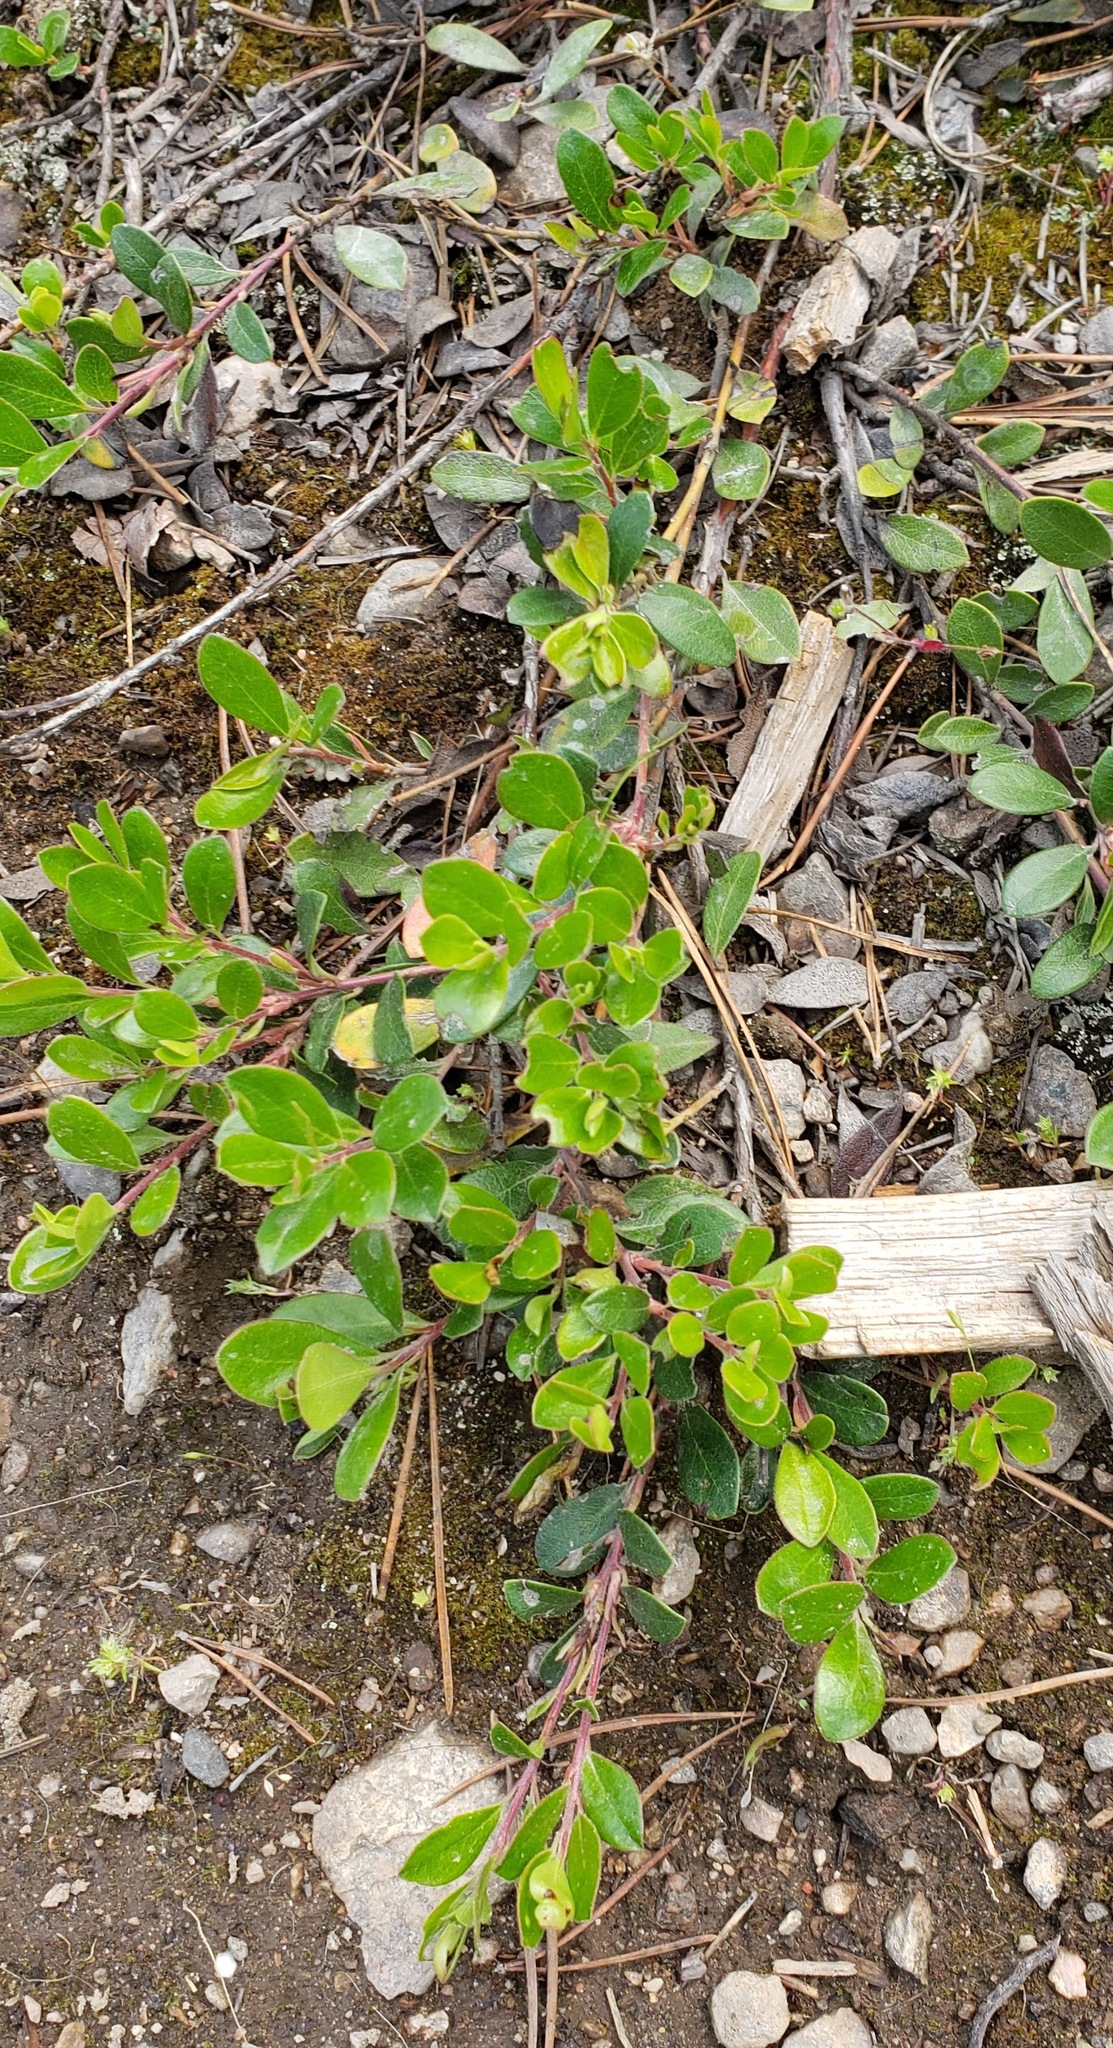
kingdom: Plantae
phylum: Tracheophyta
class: Magnoliopsida
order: Ericales
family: Ericaceae
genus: Arctostaphylos
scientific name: Arctostaphylos uva-ursi
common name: Bearberry
